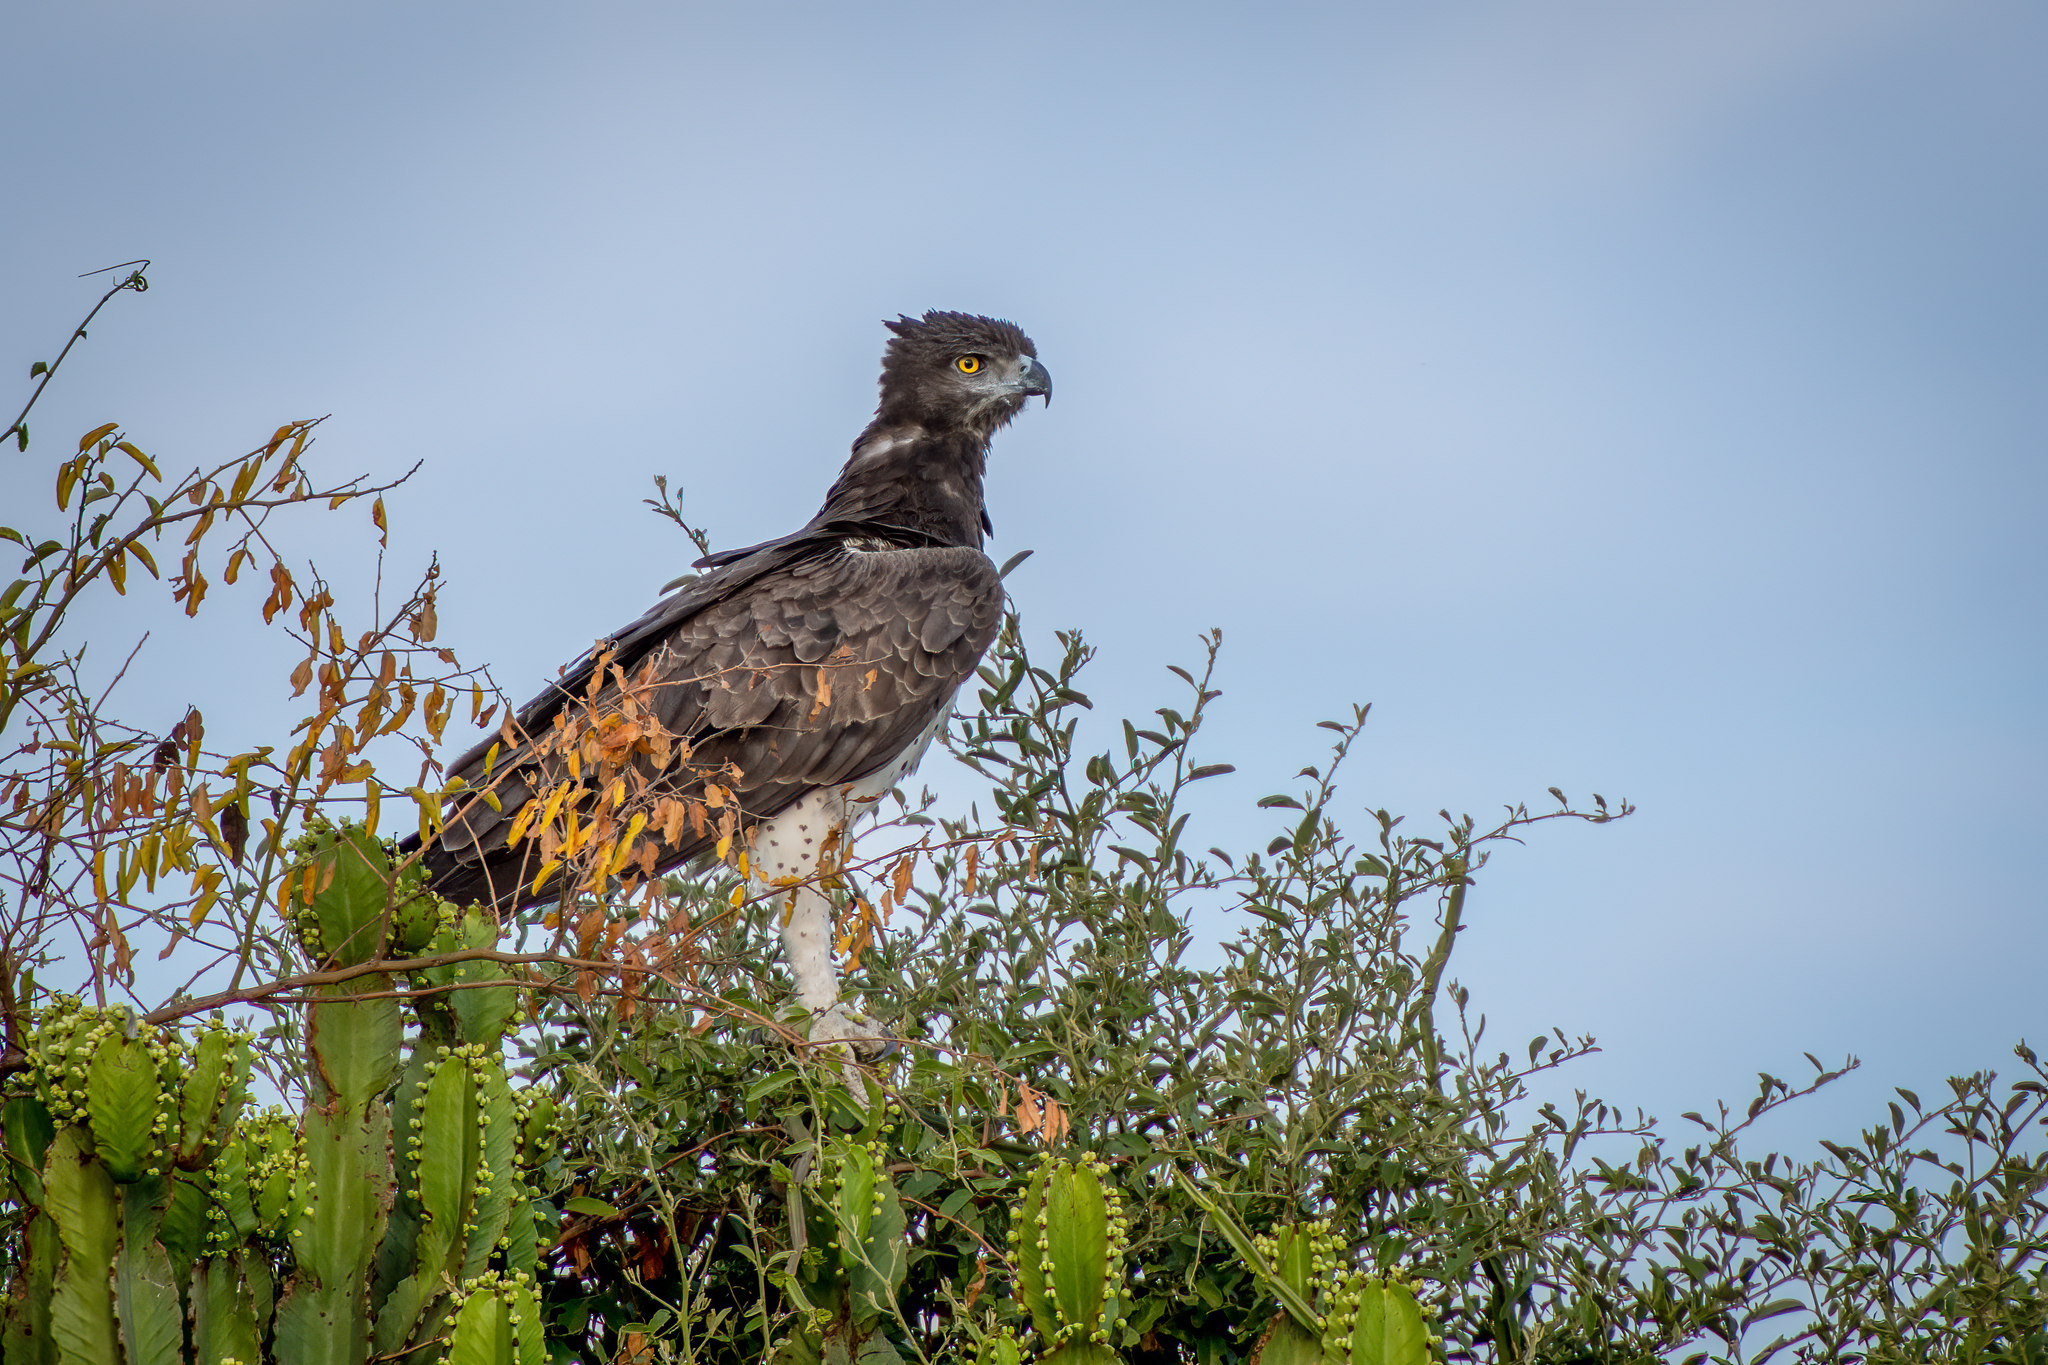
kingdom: Animalia
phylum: Chordata
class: Aves
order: Accipitriformes
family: Accipitridae
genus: Polemaetus
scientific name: Polemaetus bellicosus
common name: Martial eagle
